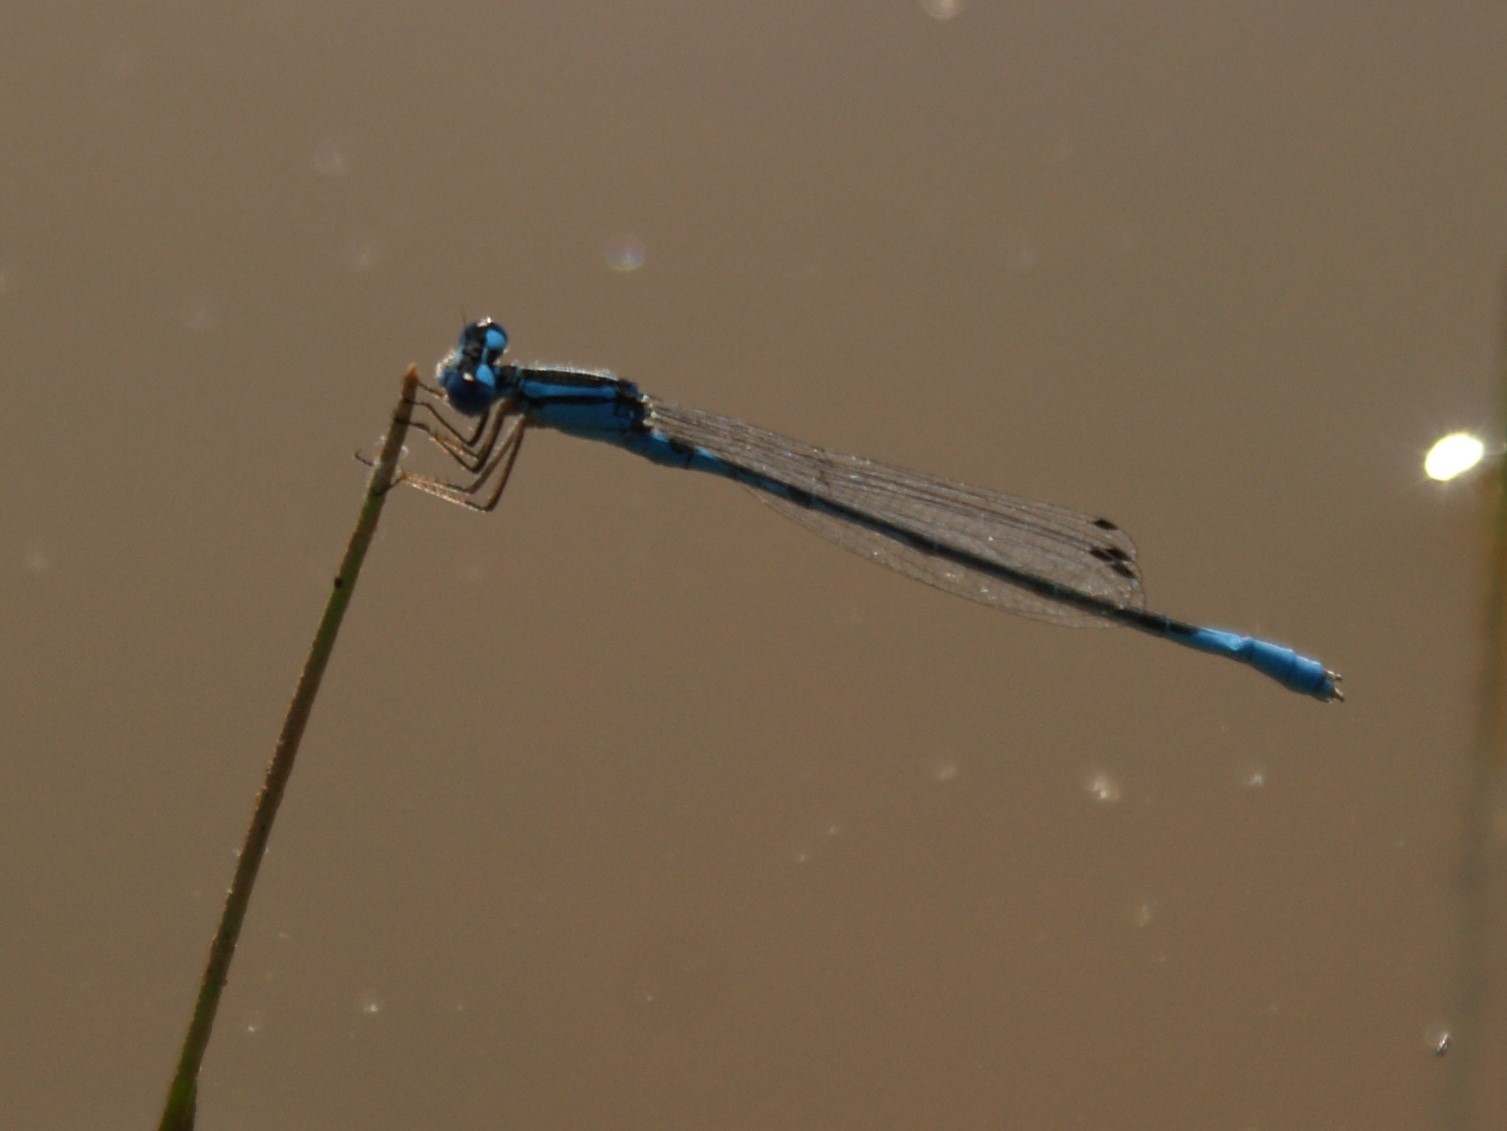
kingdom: Animalia
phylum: Arthropoda
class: Insecta
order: Odonata
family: Coenagrionidae
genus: Enallagma
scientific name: Enallagma aspersum
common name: Azure bluet
